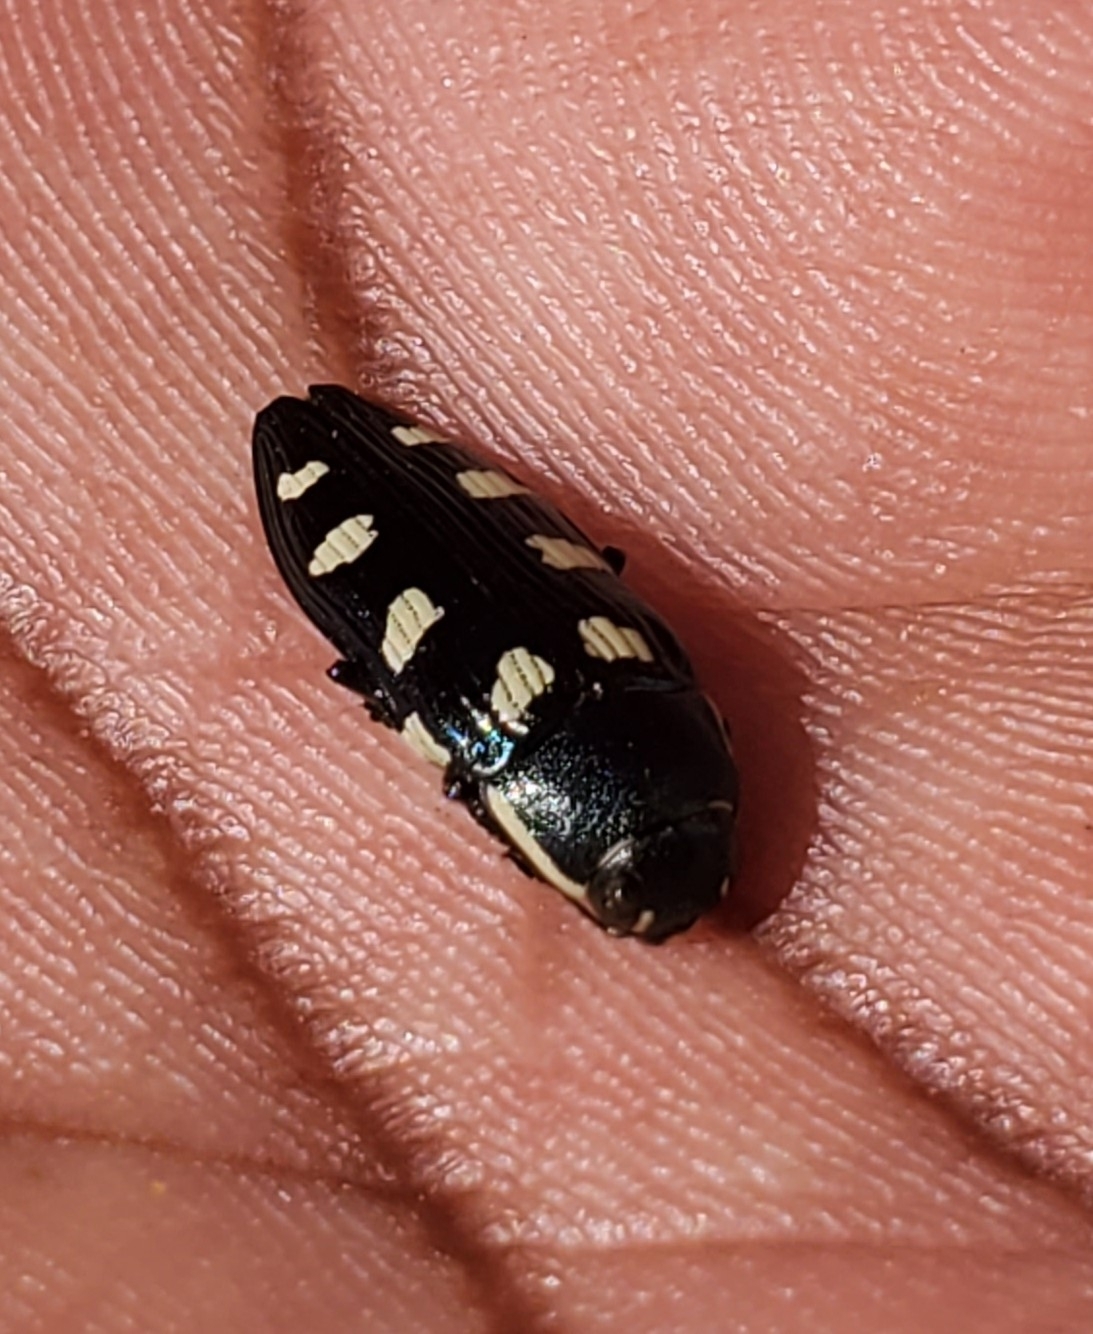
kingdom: Animalia
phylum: Arthropoda
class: Insecta
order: Coleoptera
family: Buprestidae
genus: Buprestis
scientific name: Buprestis octoguttata
